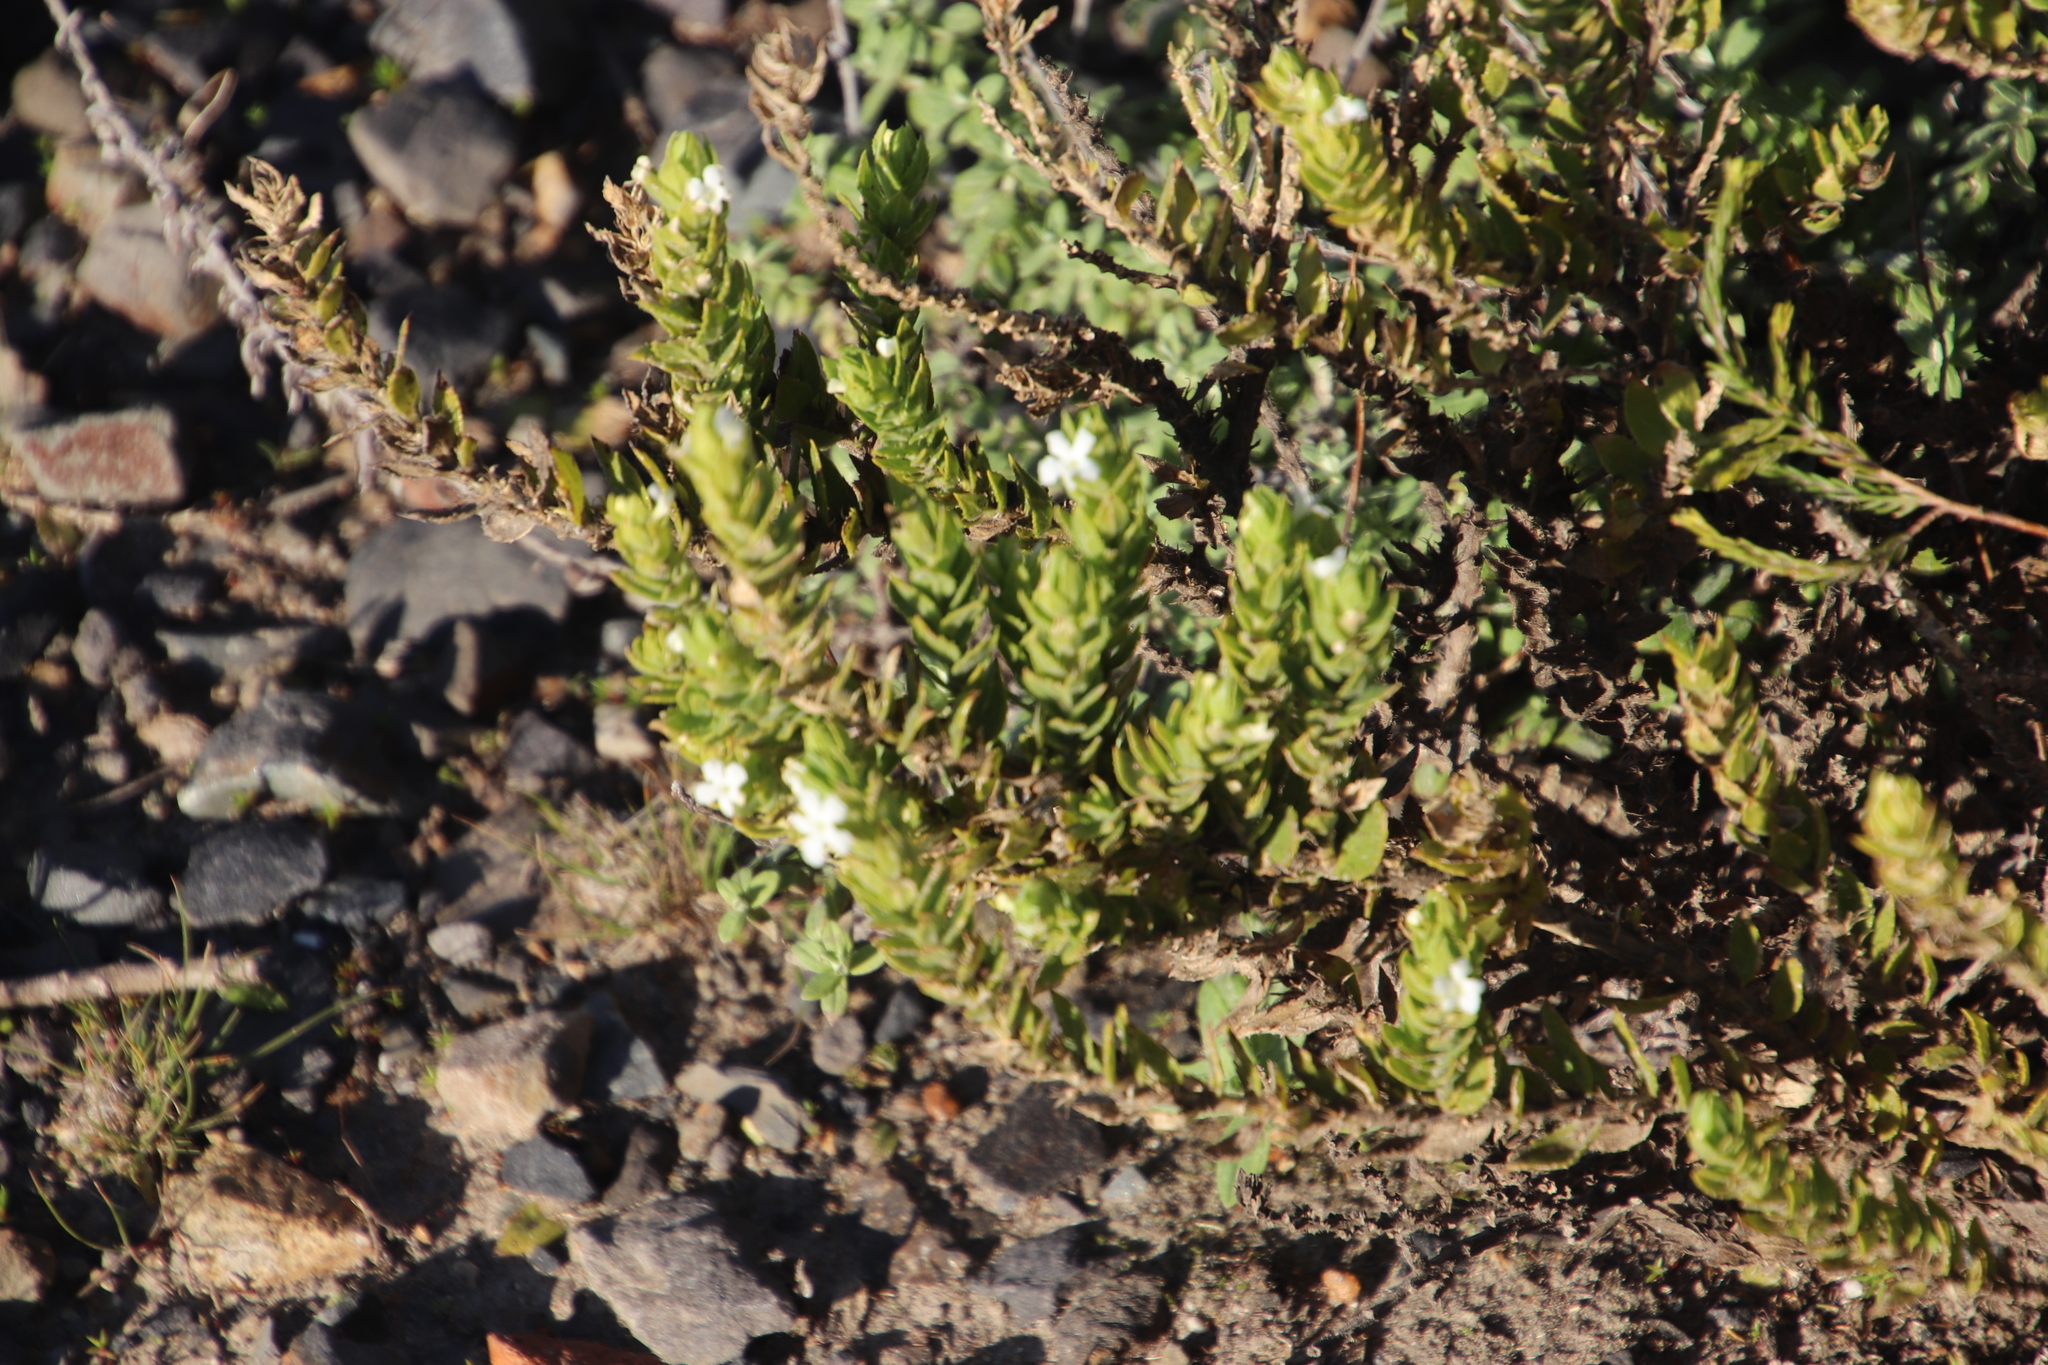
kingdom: Plantae
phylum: Tracheophyta
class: Magnoliopsida
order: Lamiales
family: Scrophulariaceae
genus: Oftia
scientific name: Oftia africana
